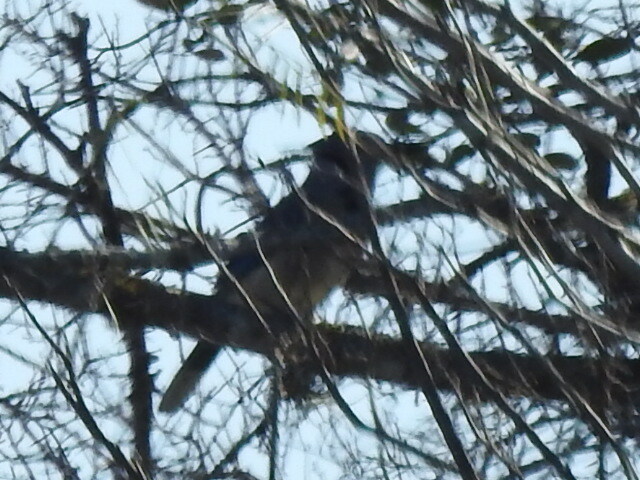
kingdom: Animalia
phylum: Chordata
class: Aves
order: Passeriformes
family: Corvidae
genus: Cyanocitta
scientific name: Cyanocitta cristata
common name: Blue jay
